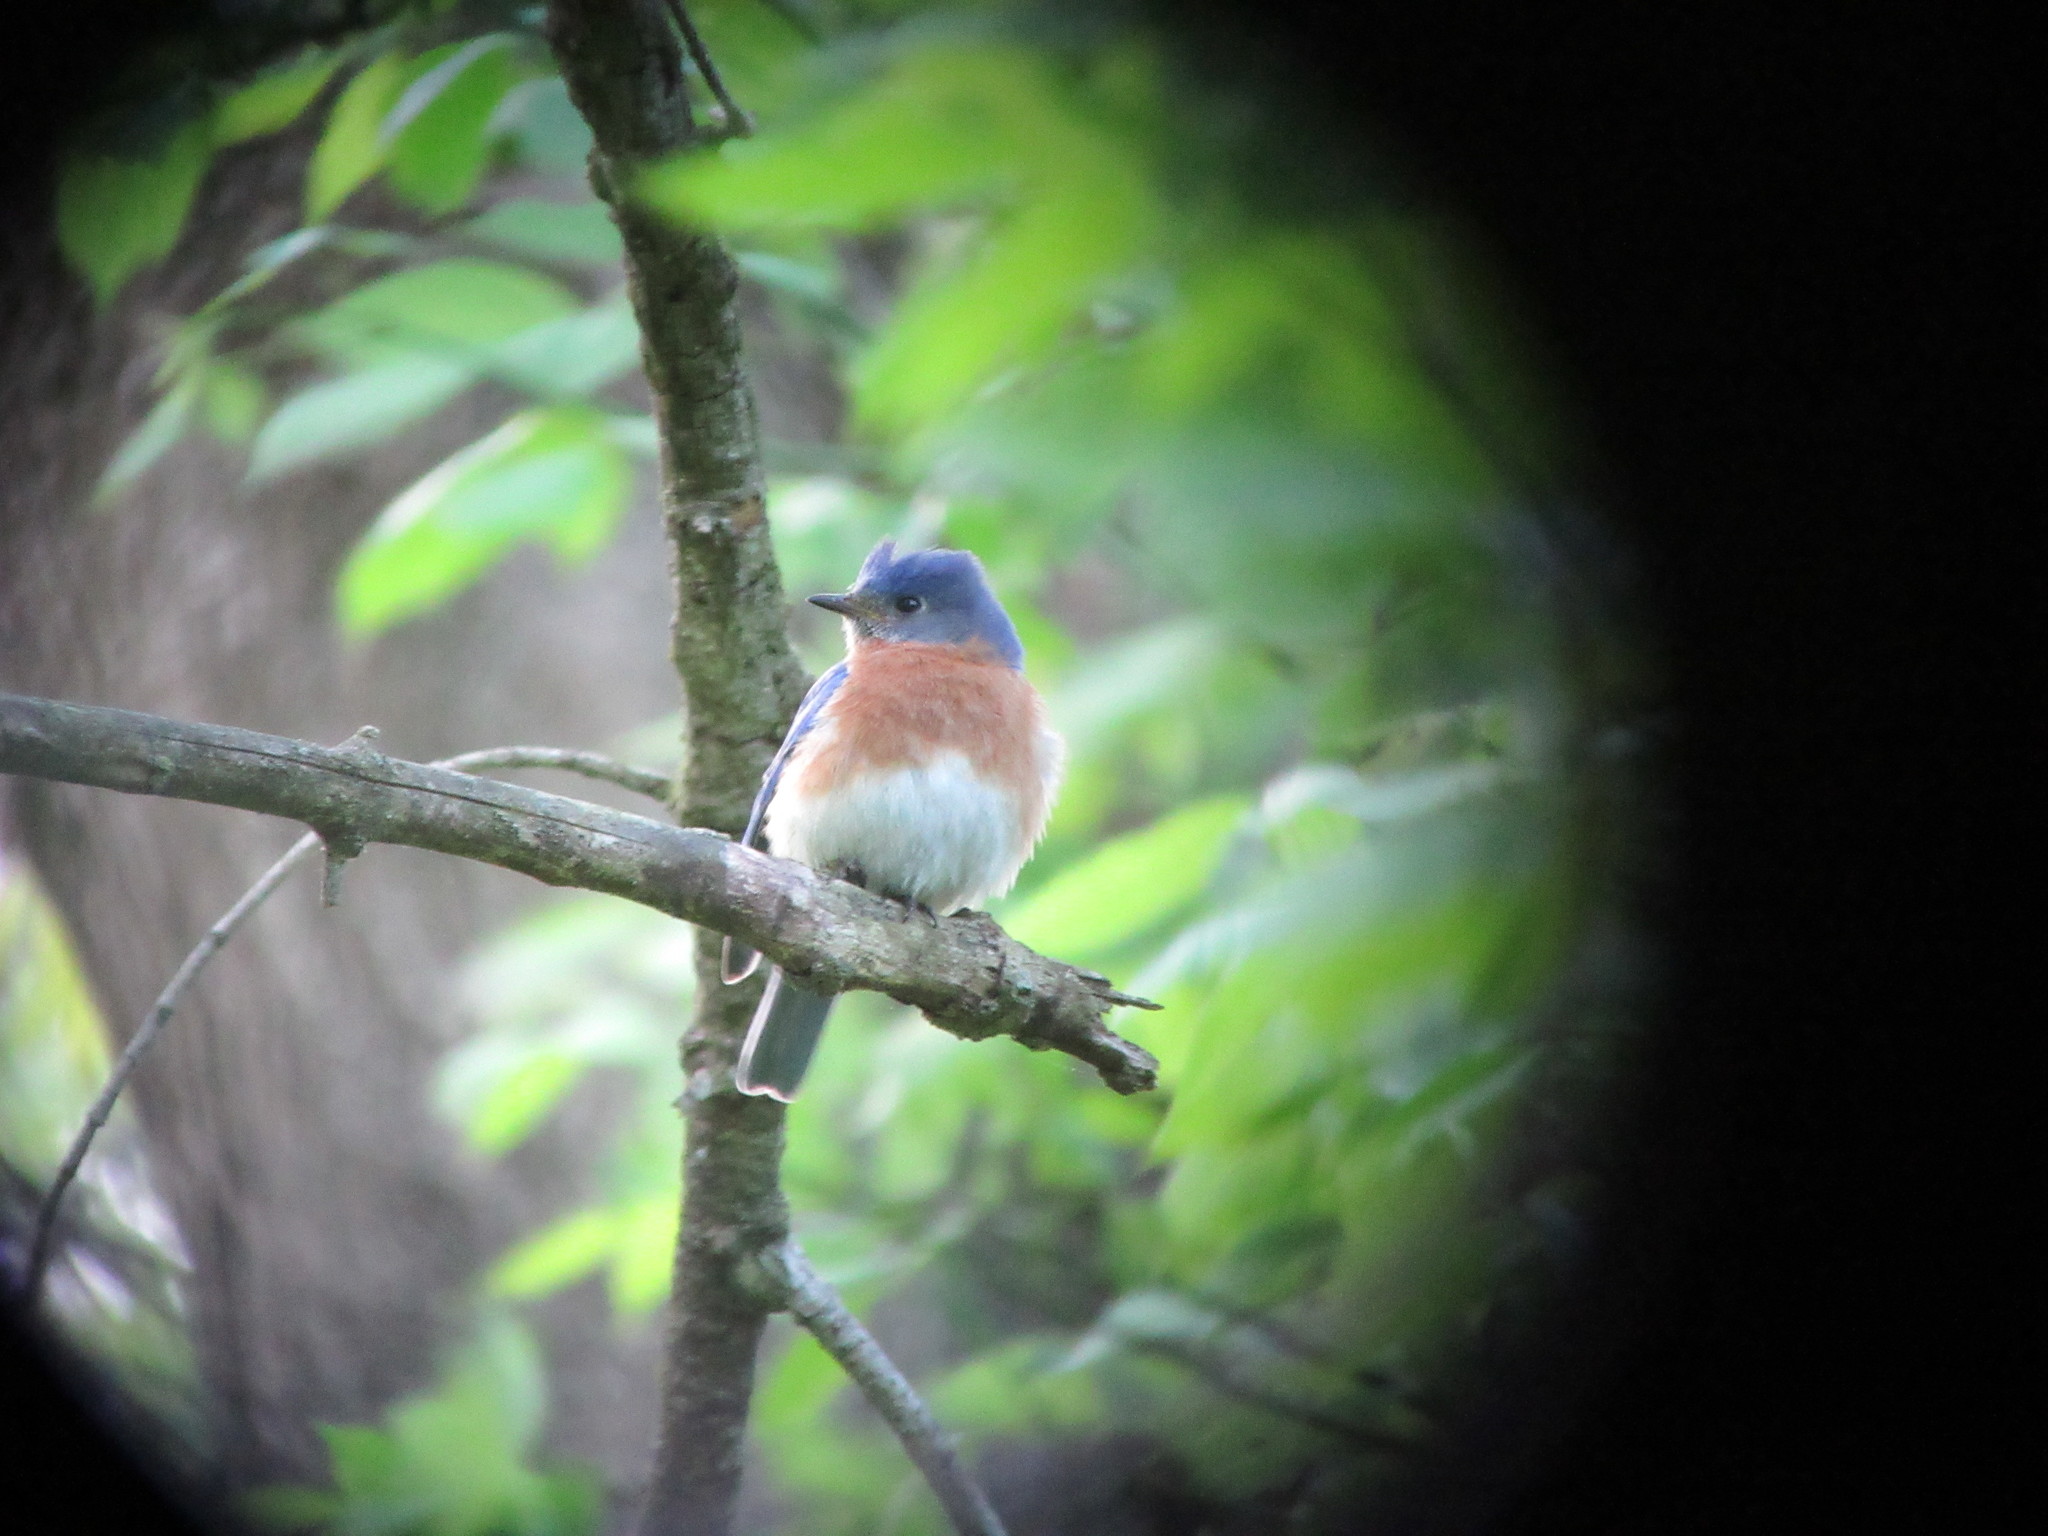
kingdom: Animalia
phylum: Chordata
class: Aves
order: Passeriformes
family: Turdidae
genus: Sialia
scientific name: Sialia sialis
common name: Eastern bluebird
